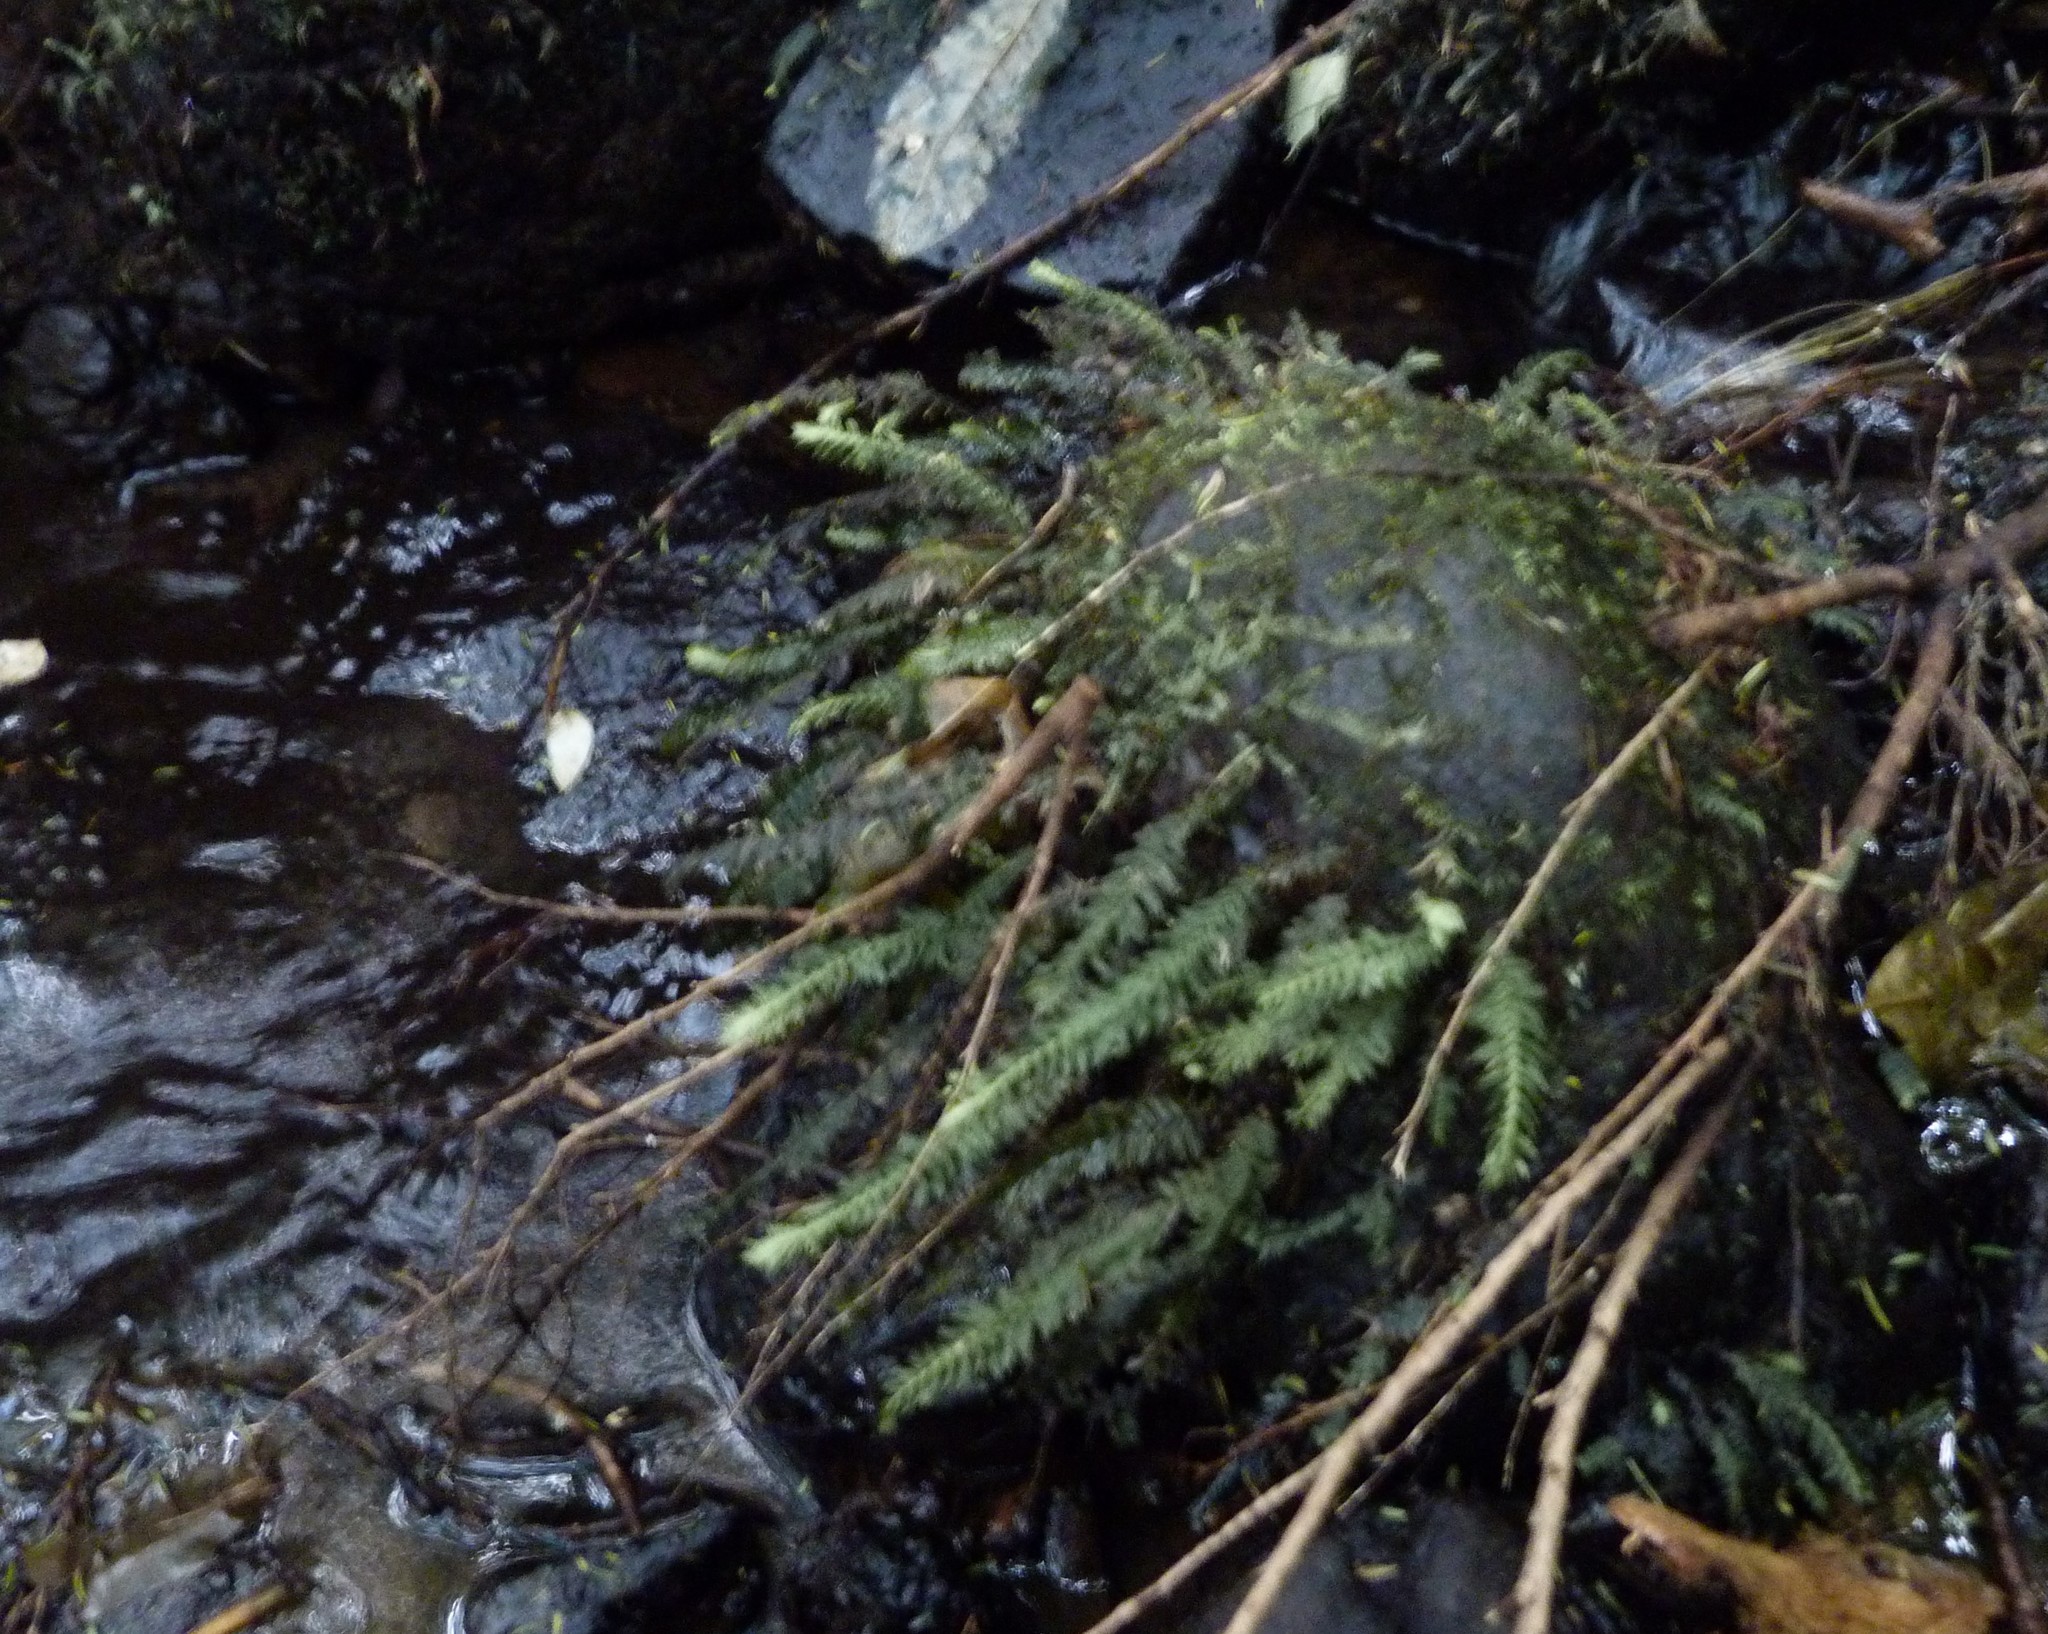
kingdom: Plantae
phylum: Bryophyta
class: Bryopsida
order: Hypopterygiales
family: Hypopterygiaceae
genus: Cyathophorum
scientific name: Cyathophorum bulbosum
